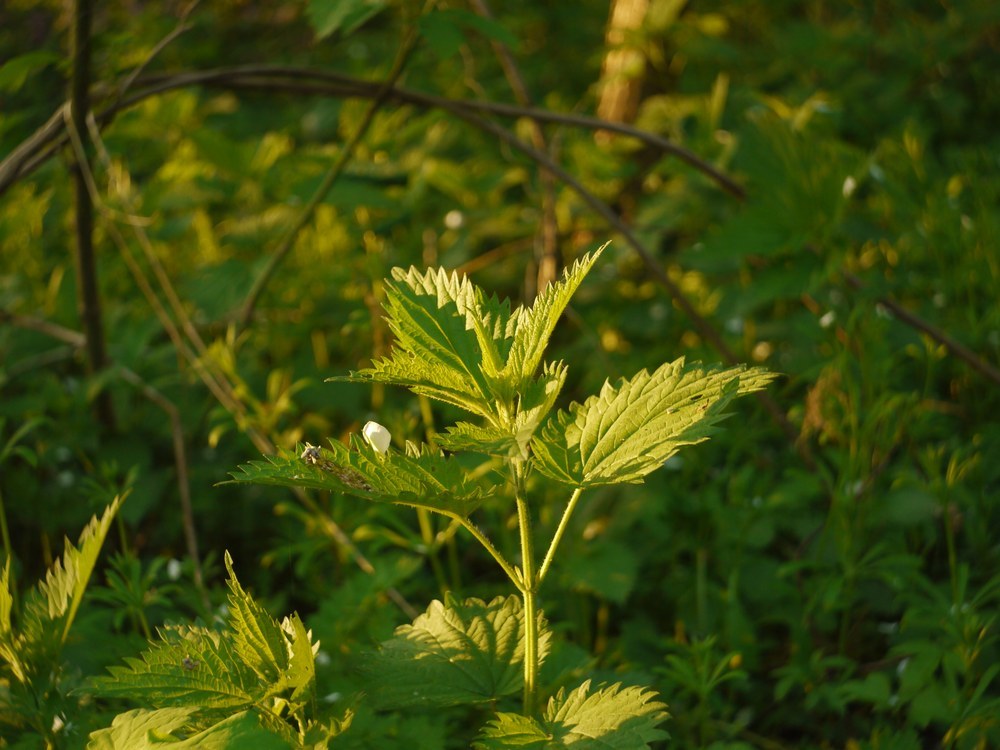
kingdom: Plantae
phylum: Tracheophyta
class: Magnoliopsida
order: Rosales
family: Urticaceae
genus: Urtica
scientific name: Urtica dioica
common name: Common nettle
